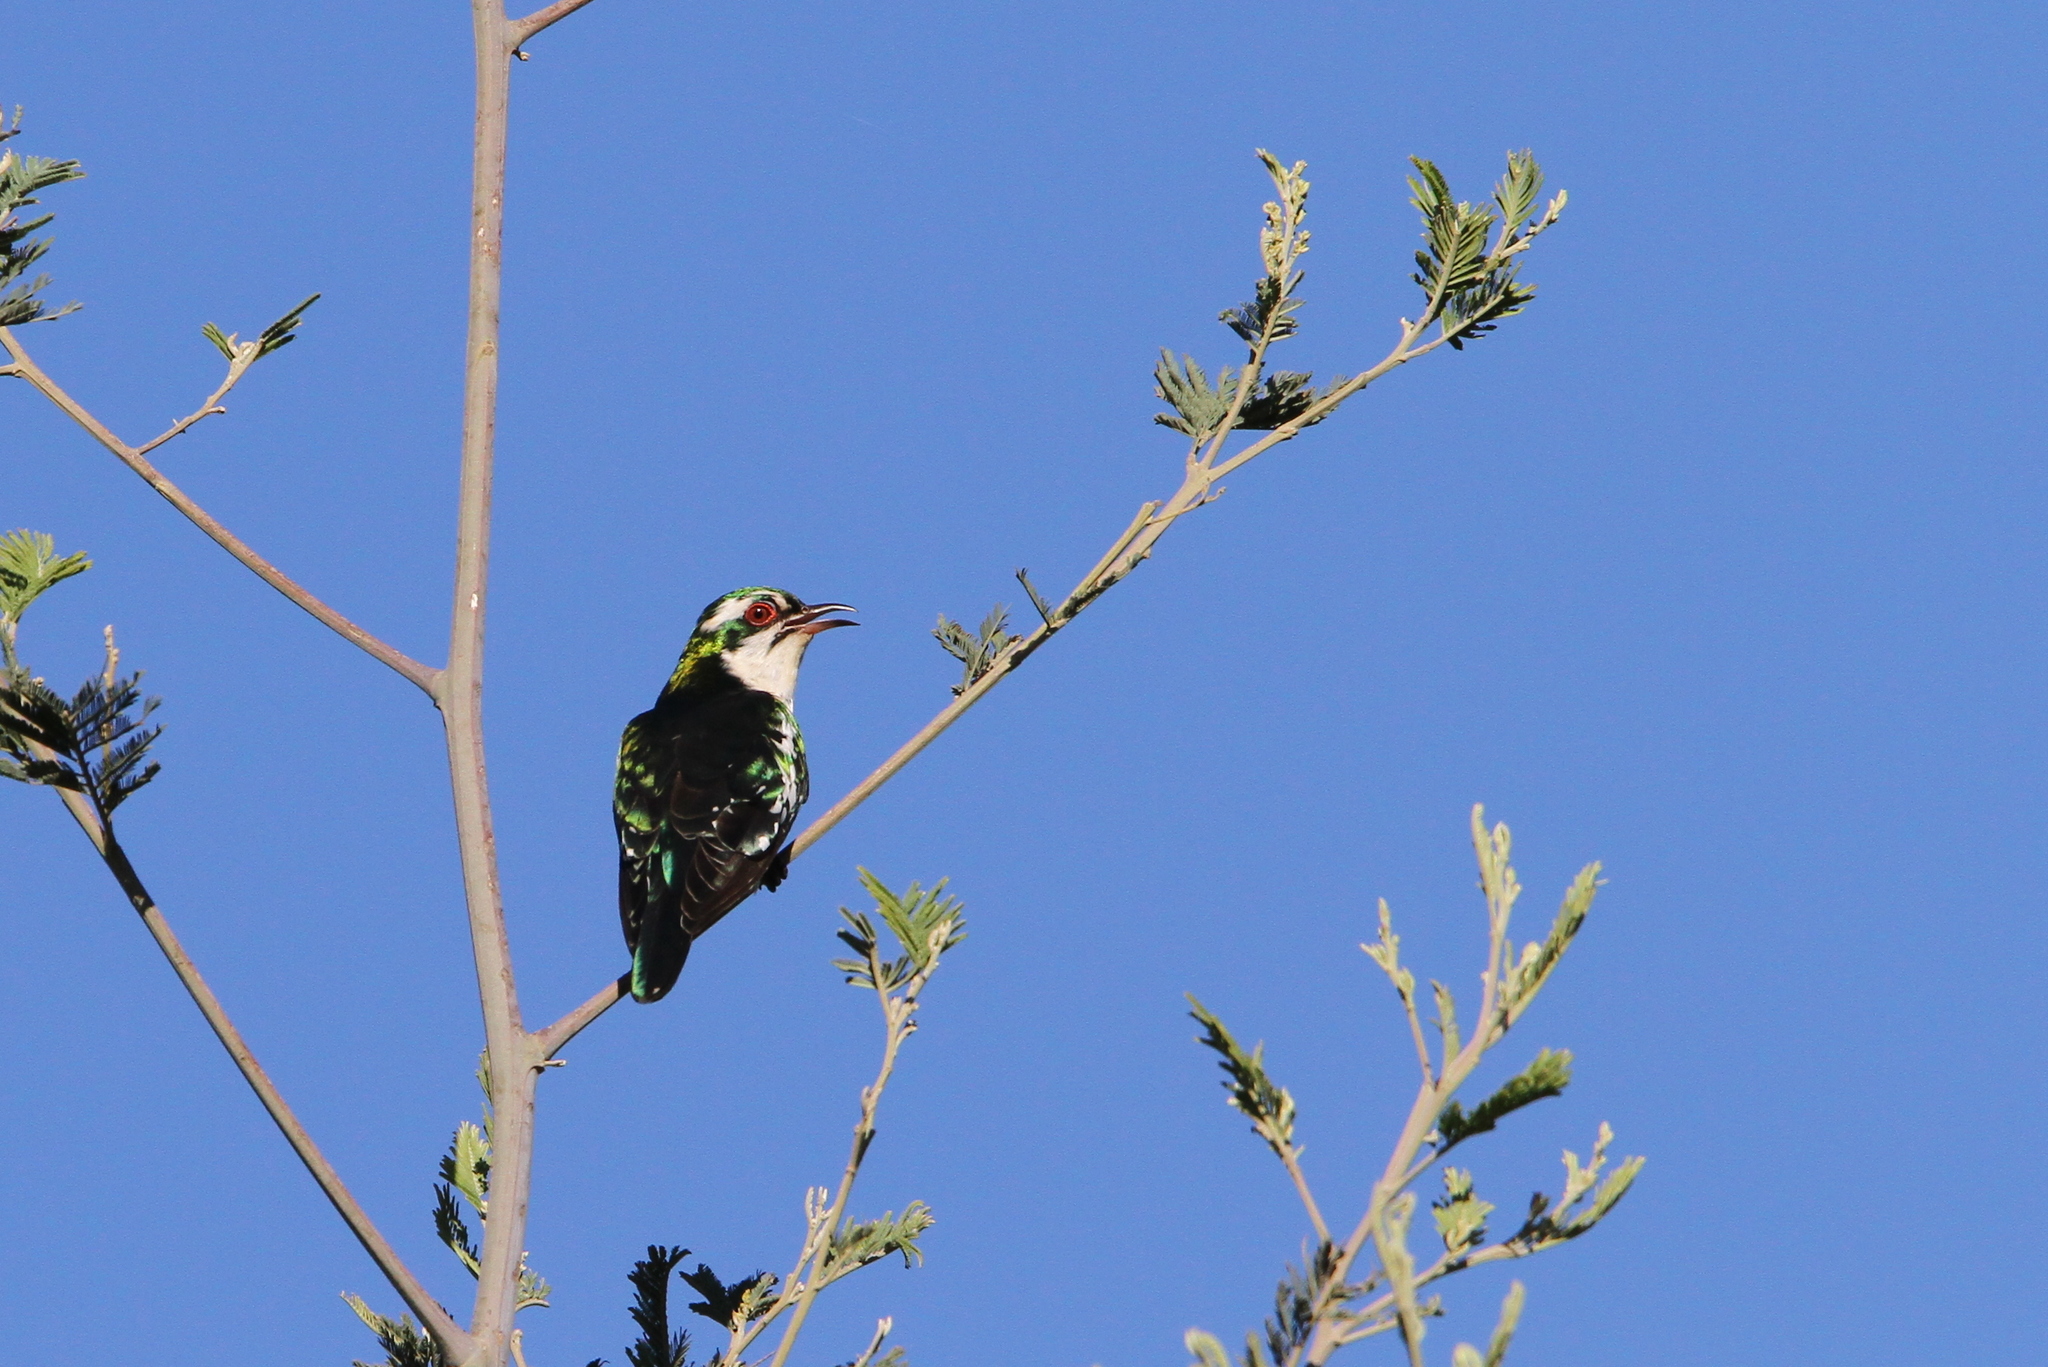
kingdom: Animalia
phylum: Chordata
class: Aves
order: Cuculiformes
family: Cuculidae
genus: Chrysococcyx
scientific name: Chrysococcyx caprius
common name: Diederik cuckoo
